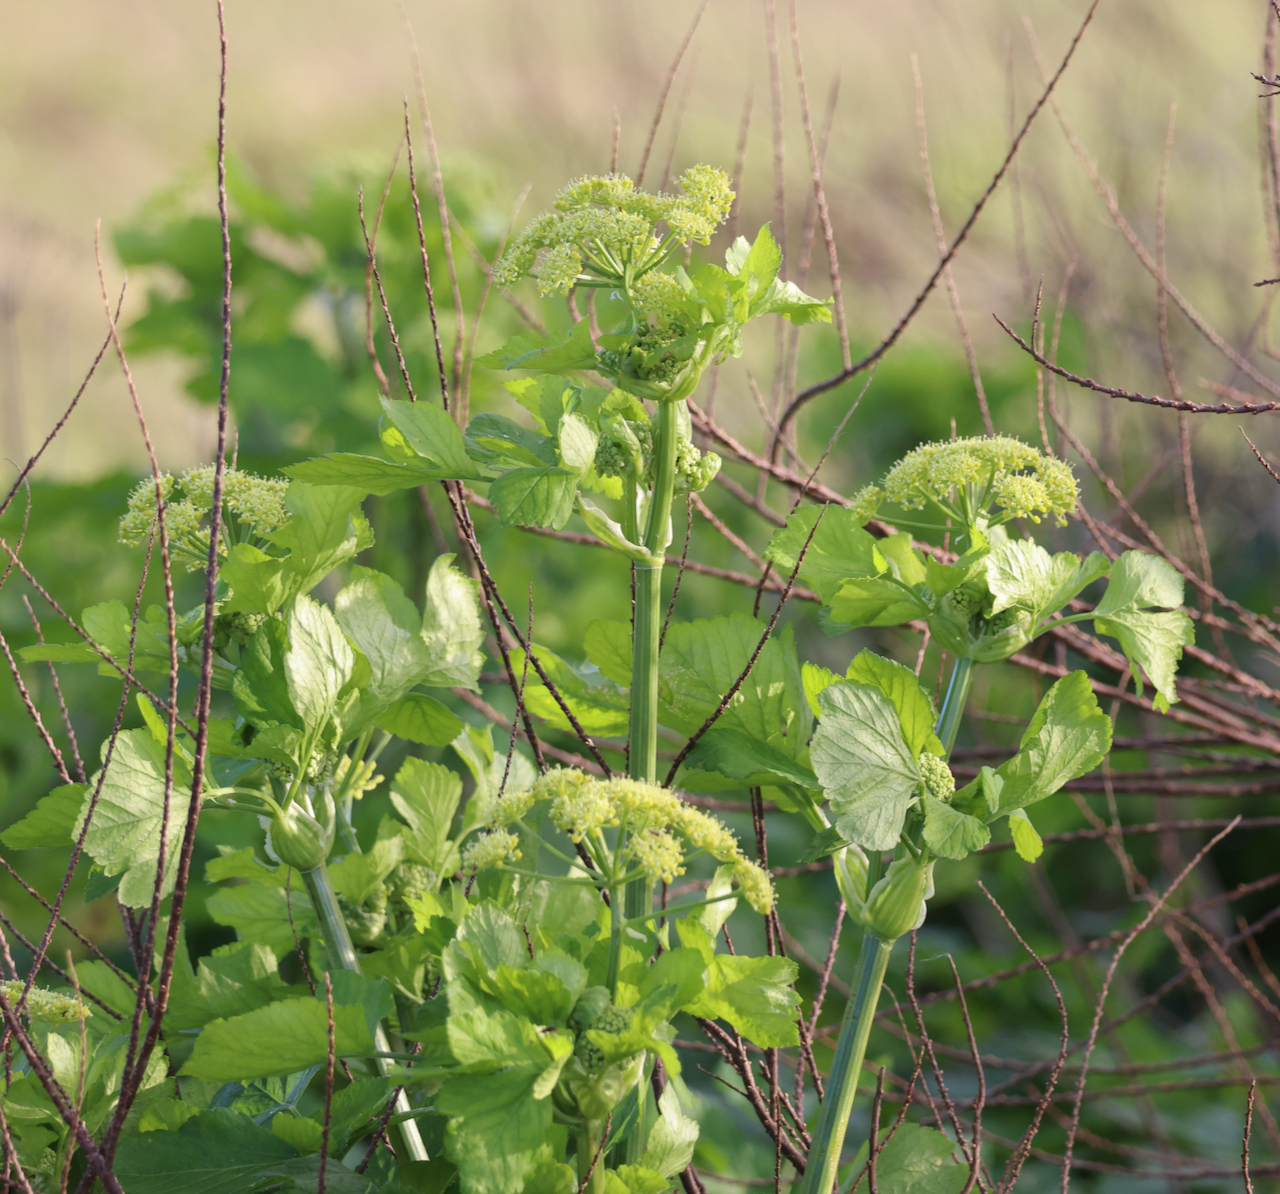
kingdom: Plantae
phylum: Tracheophyta
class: Magnoliopsida
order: Apiales
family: Apiaceae
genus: Smyrnium
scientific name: Smyrnium olusatrum
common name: Alexanders
